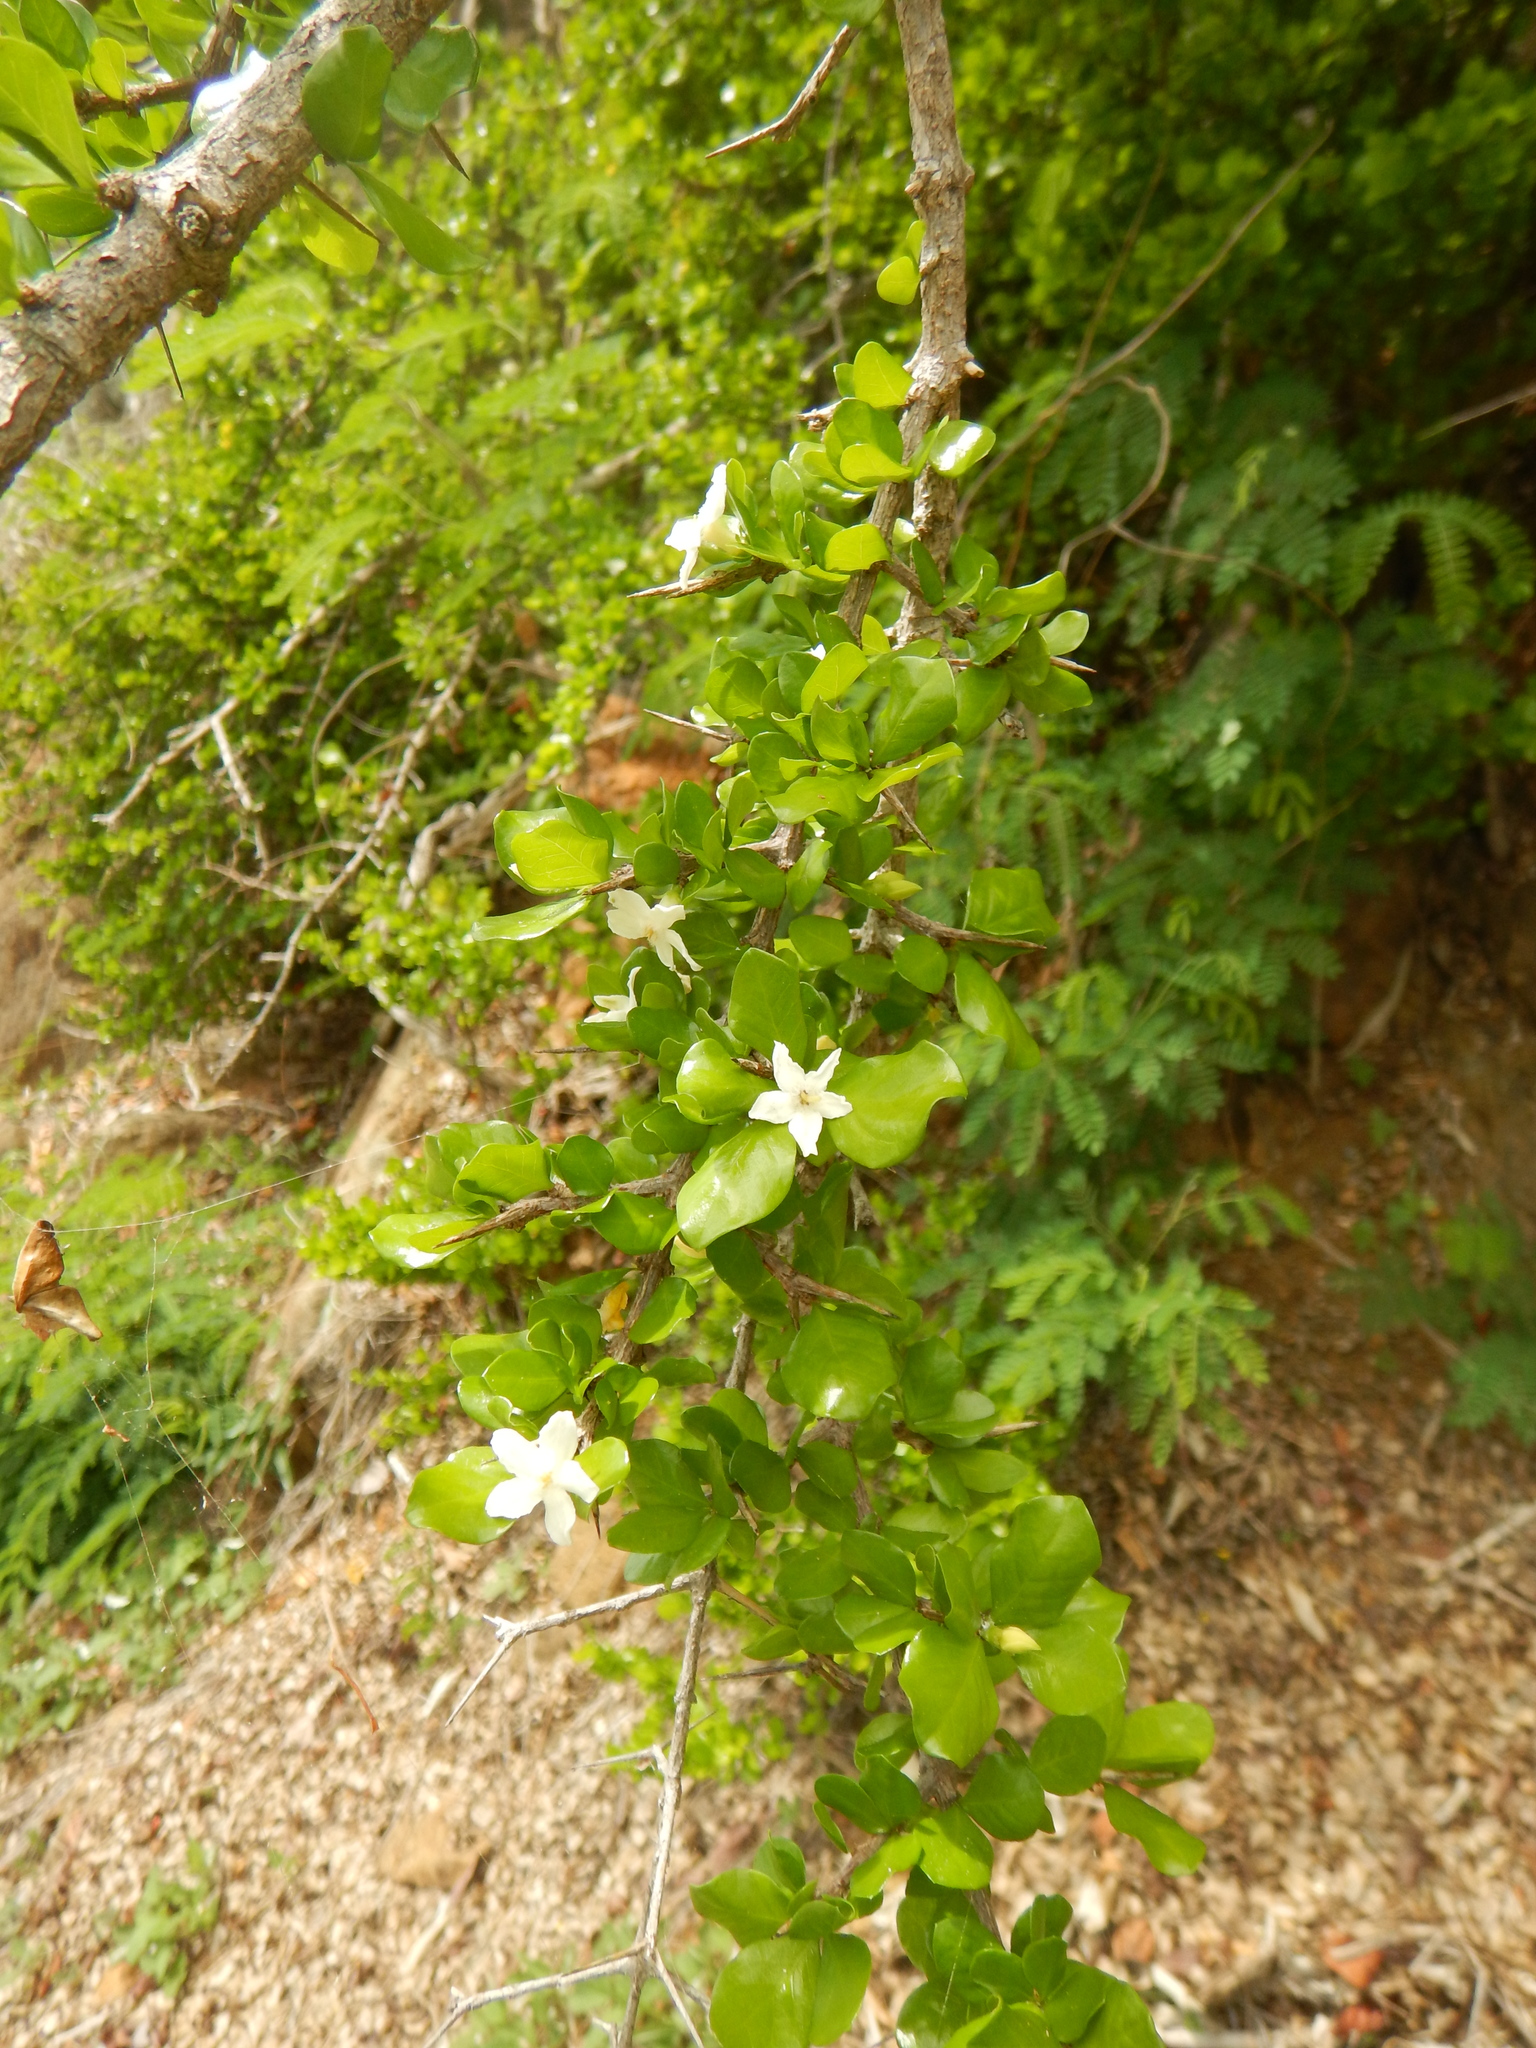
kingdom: Plantae
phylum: Tracheophyta
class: Magnoliopsida
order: Gentianales
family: Rubiaceae
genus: Randia
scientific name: Randia aculeata
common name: Inkberry
